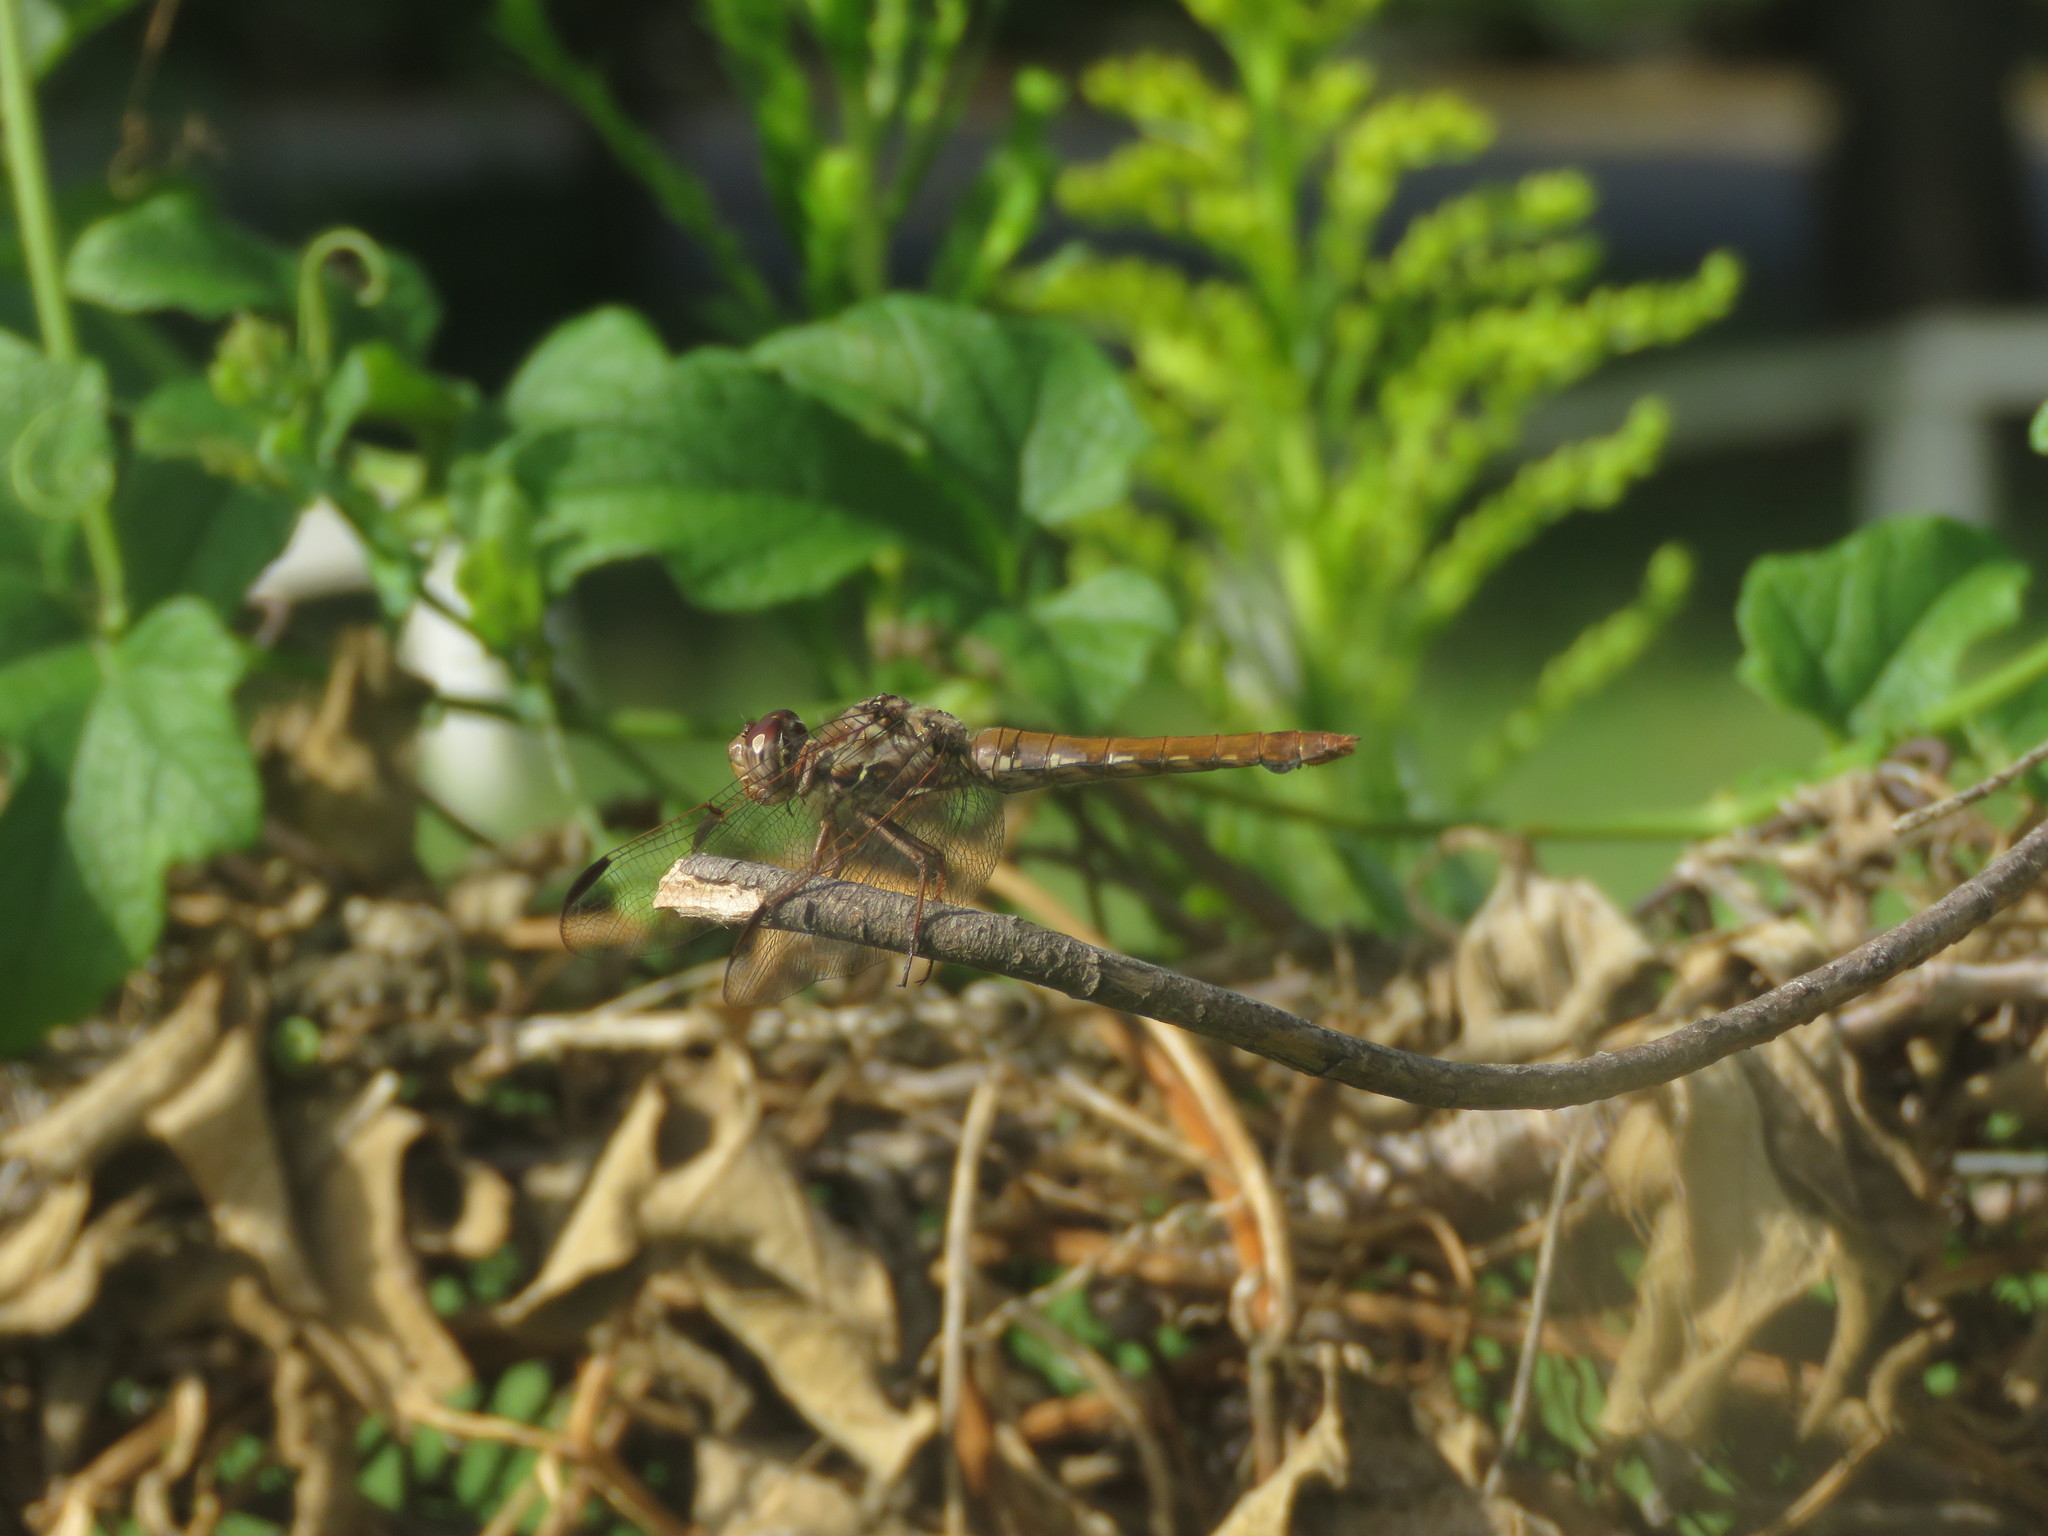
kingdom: Animalia
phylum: Arthropoda
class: Insecta
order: Odonata
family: Libellulidae
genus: Orthemis
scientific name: Orthemis nodiplaga
